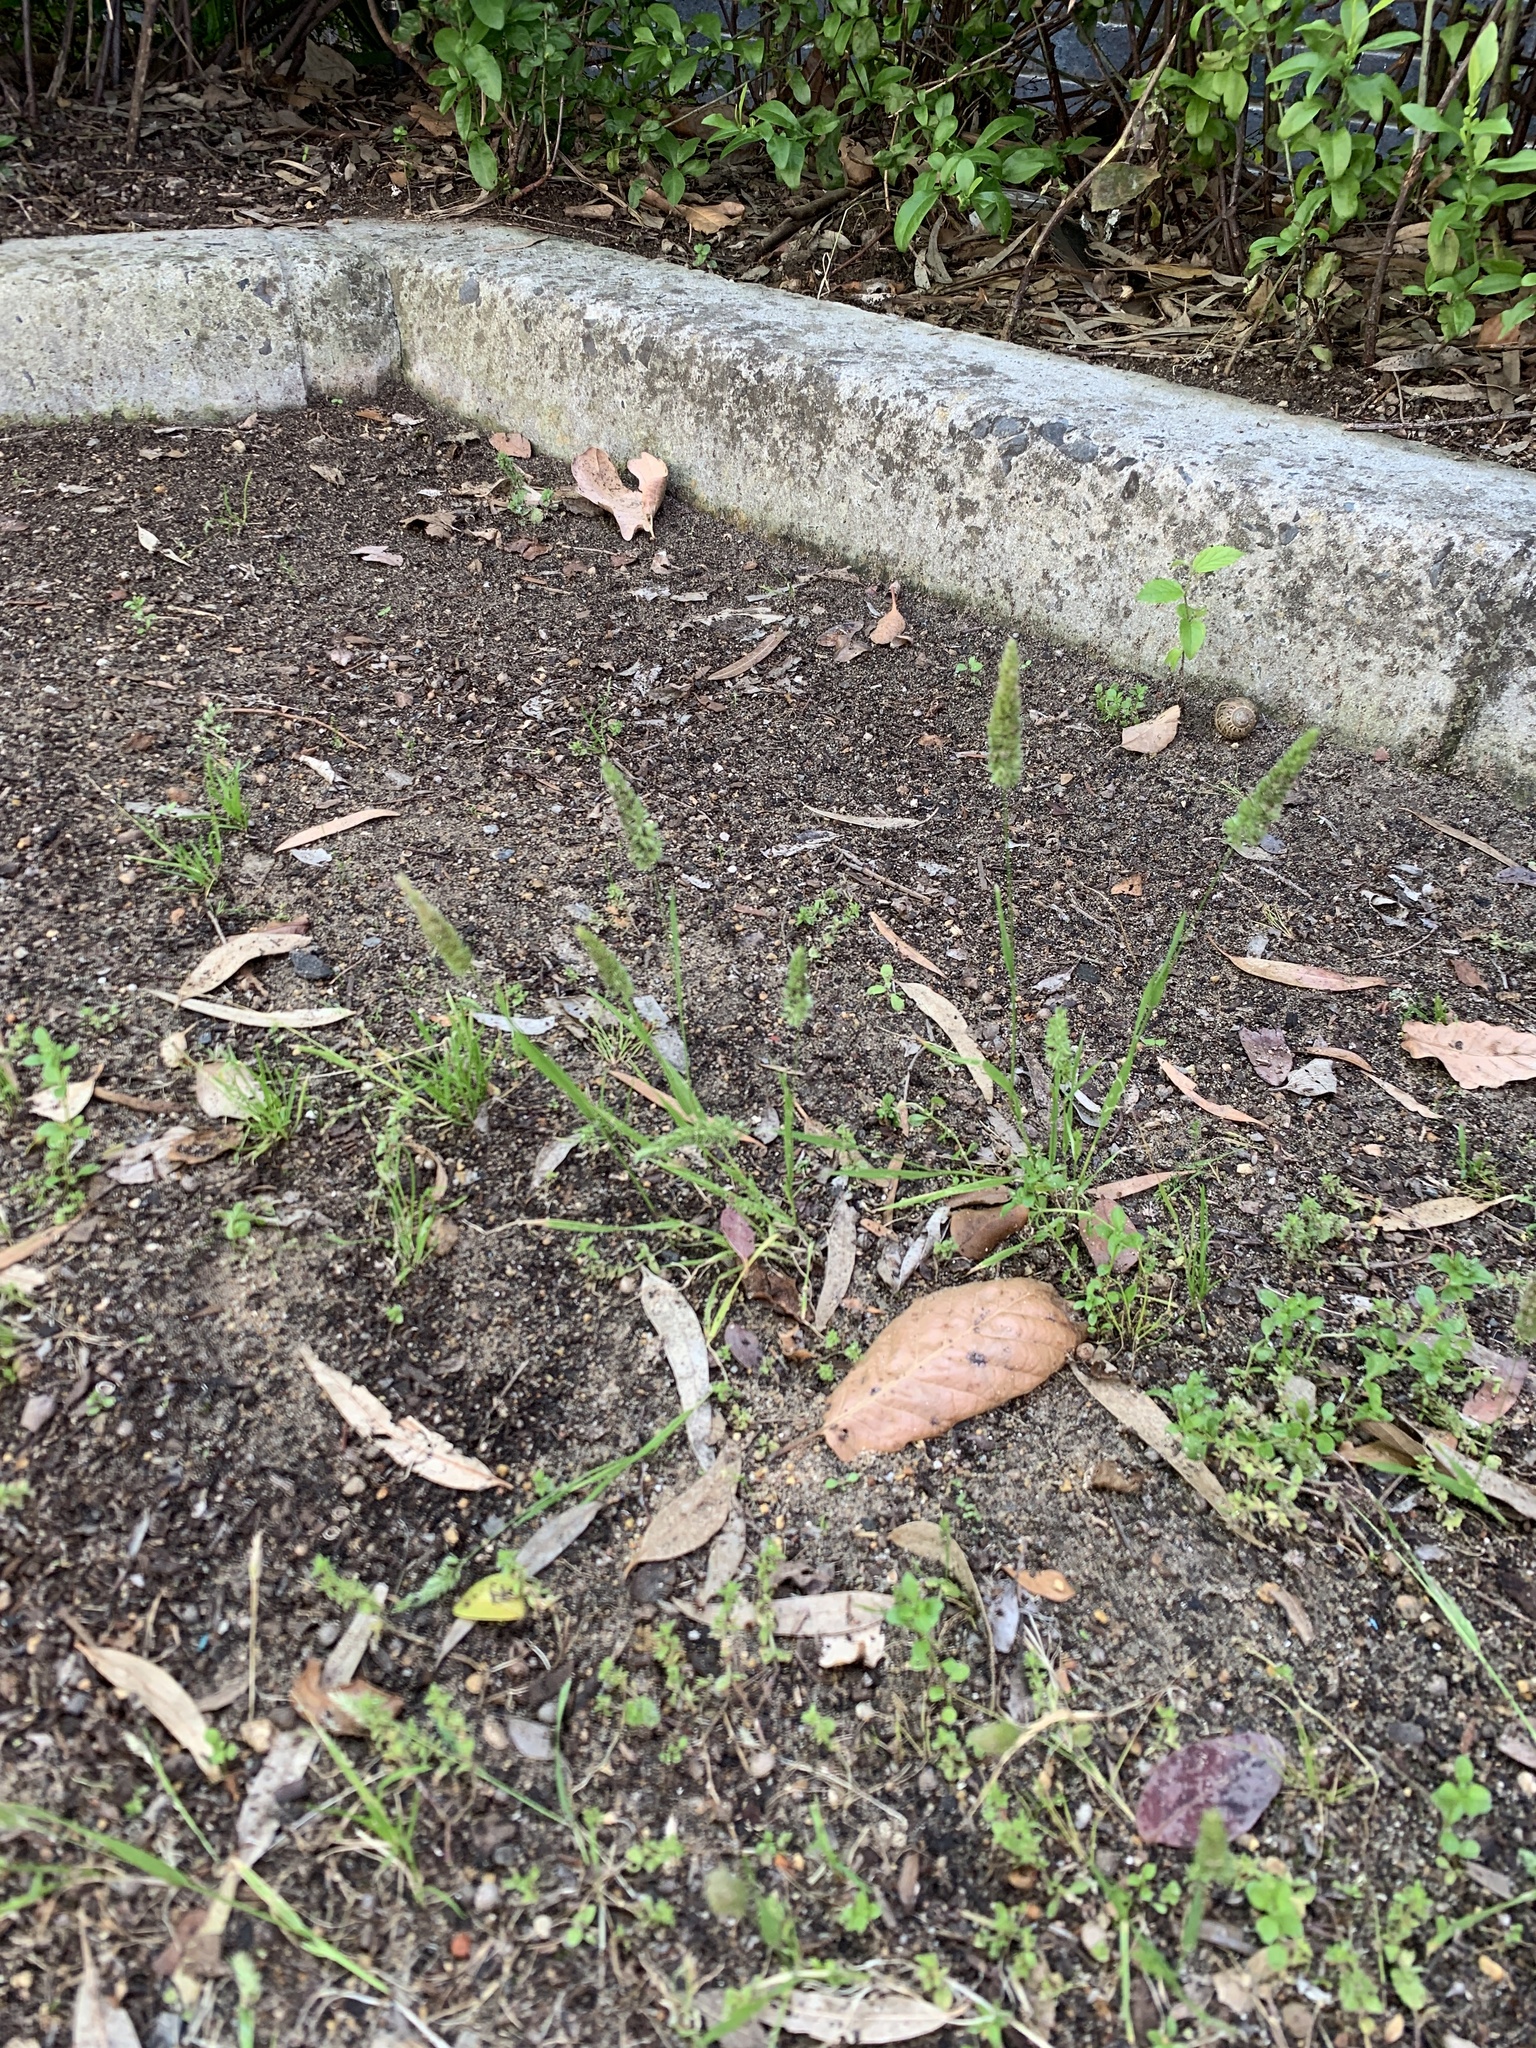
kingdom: Plantae
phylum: Tracheophyta
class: Liliopsida
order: Poales
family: Poaceae
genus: Rostraria
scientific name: Rostraria cristata
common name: Mediterranean hair-grass
